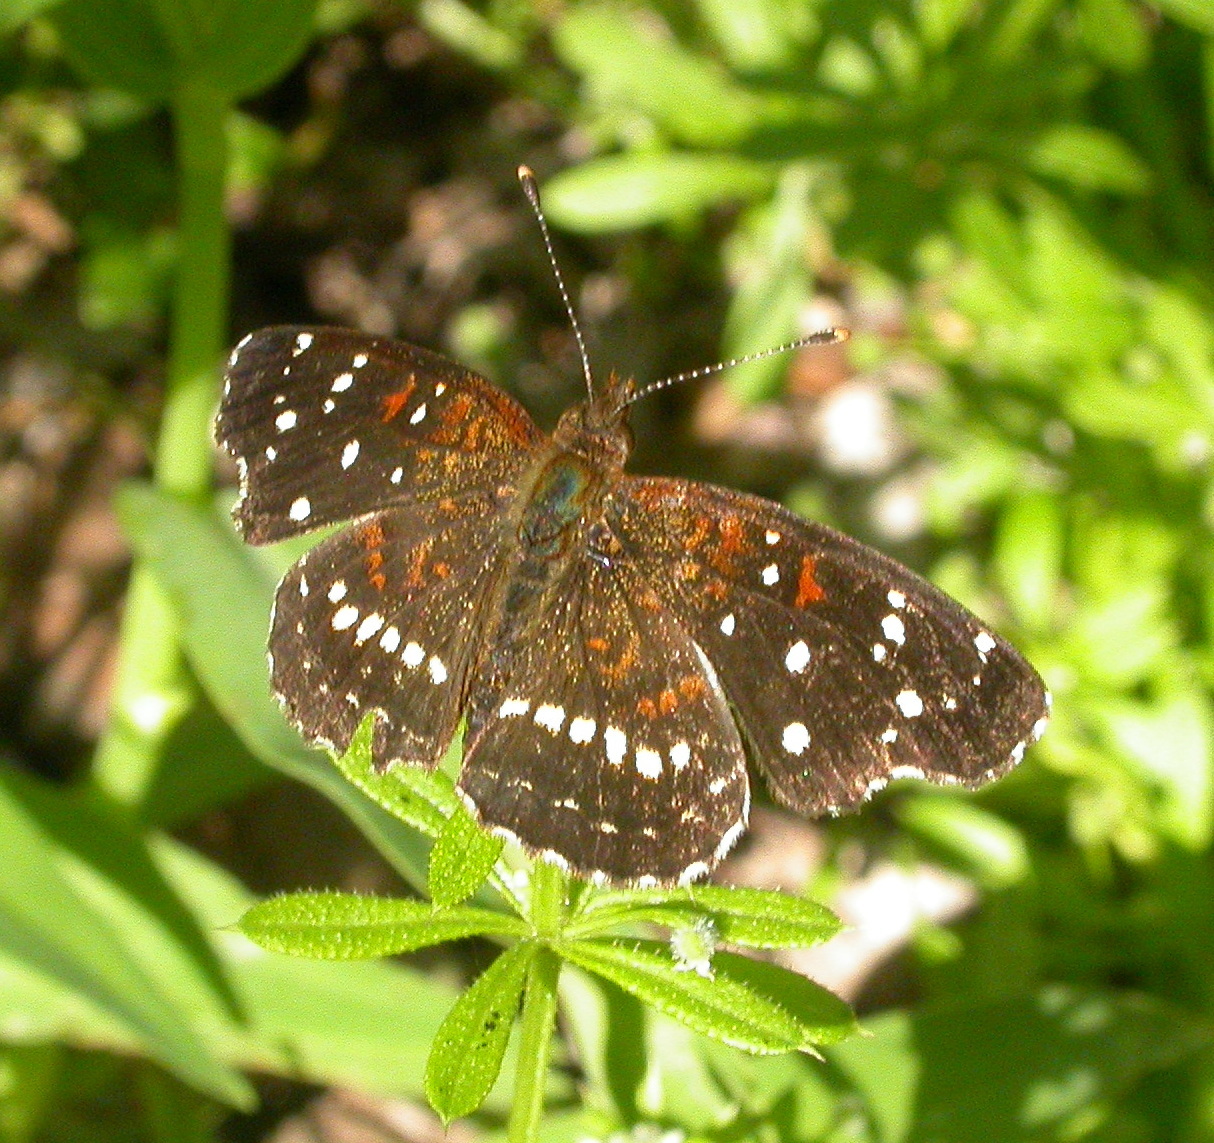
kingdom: Animalia
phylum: Arthropoda
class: Insecta
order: Lepidoptera
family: Nymphalidae
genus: Anthanassa
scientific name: Anthanassa texana
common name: Texan crescent
